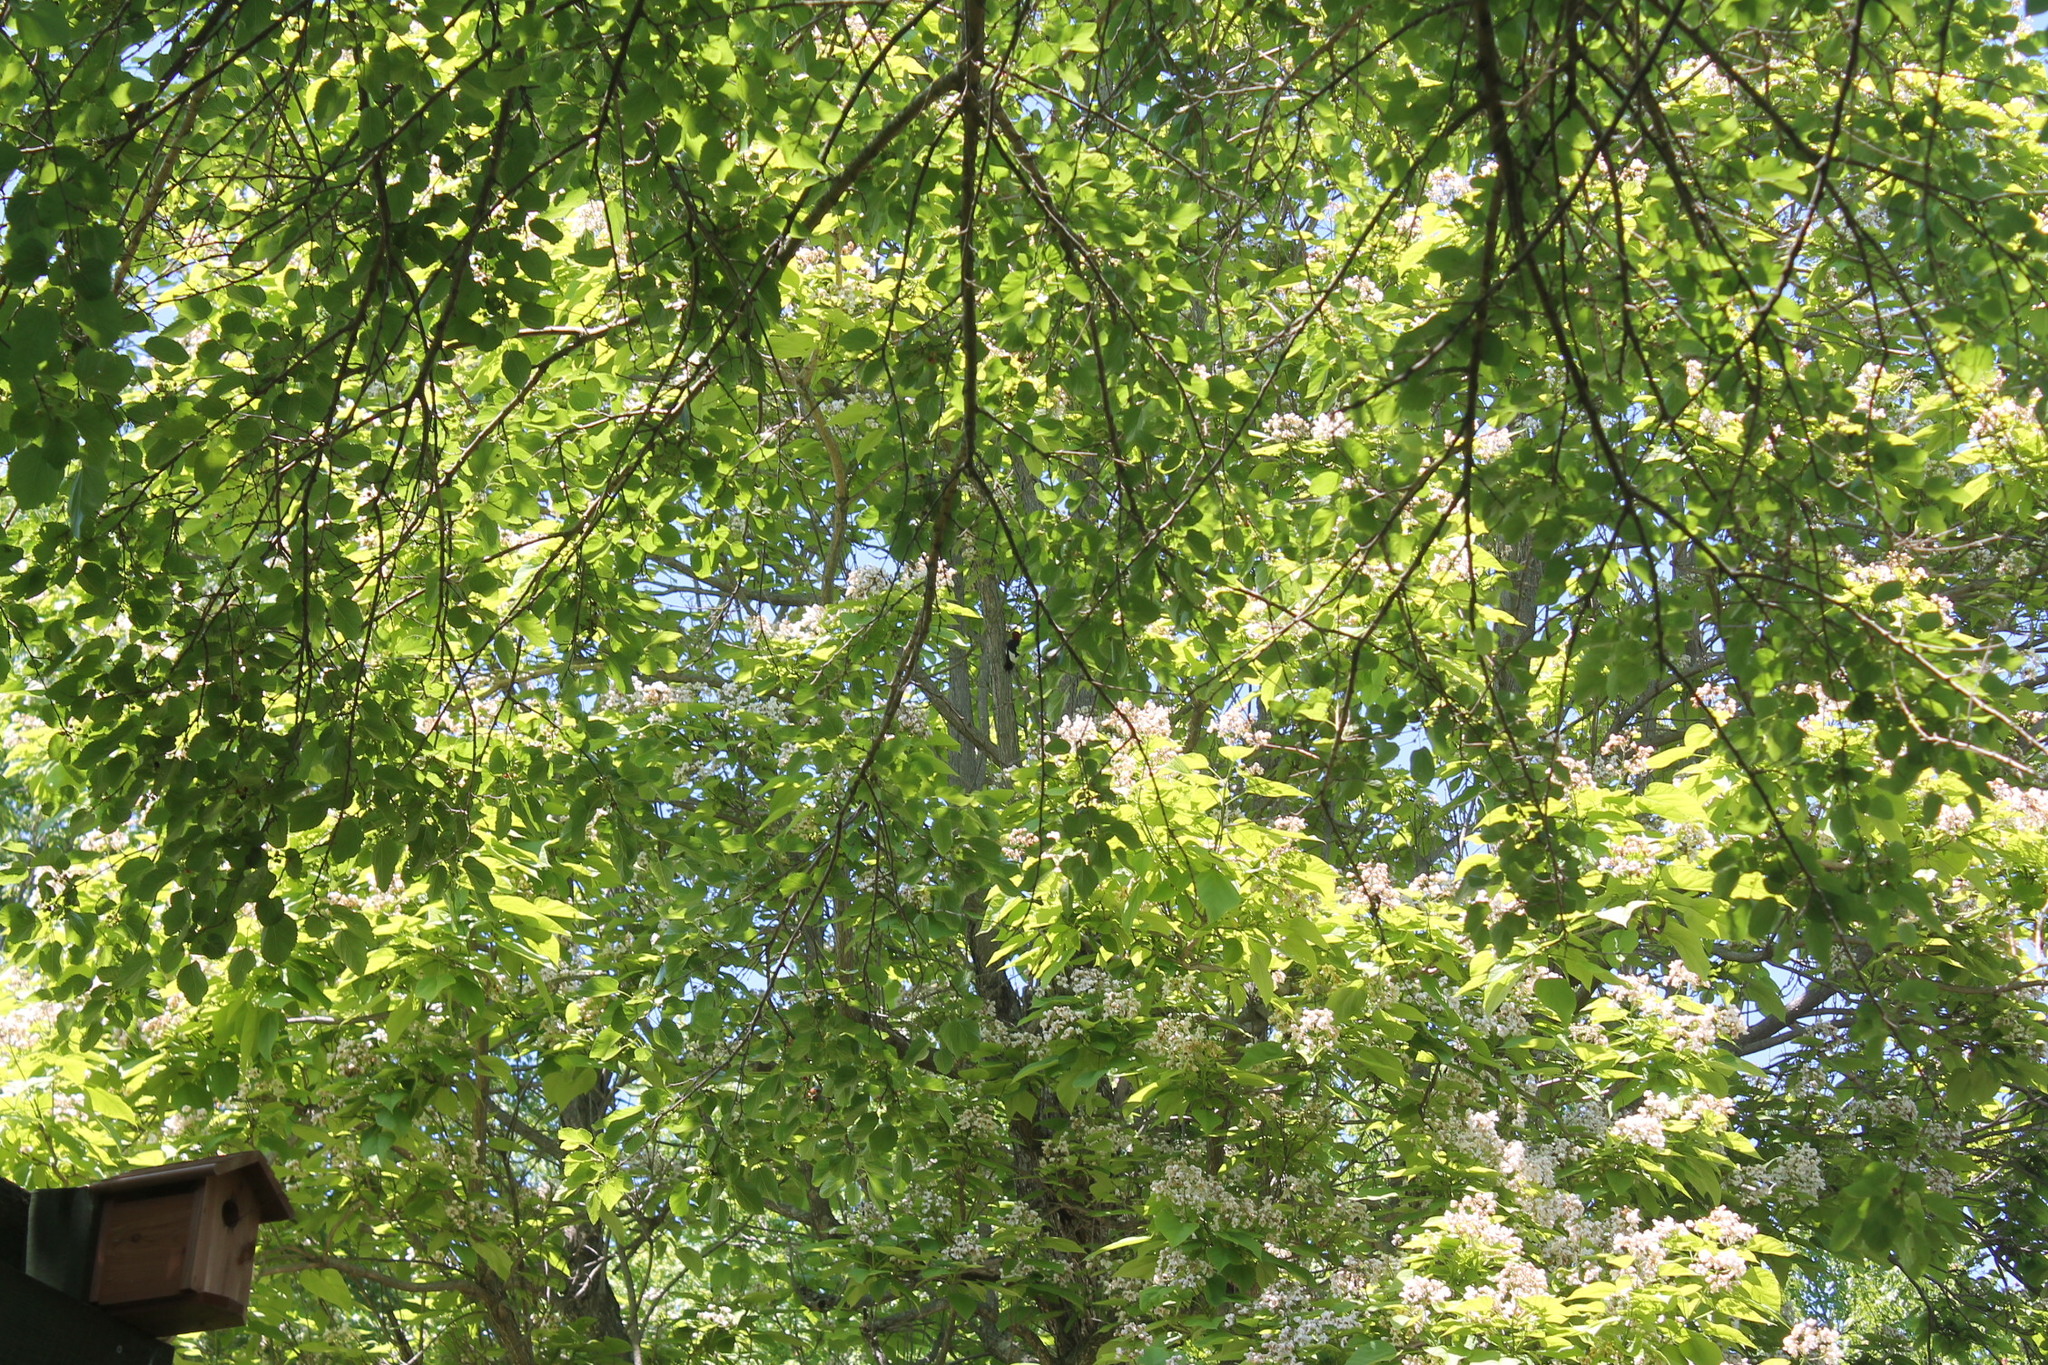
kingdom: Animalia
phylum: Chordata
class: Aves
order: Piciformes
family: Picidae
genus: Melanerpes
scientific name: Melanerpes erythrocephalus
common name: Red-headed woodpecker
